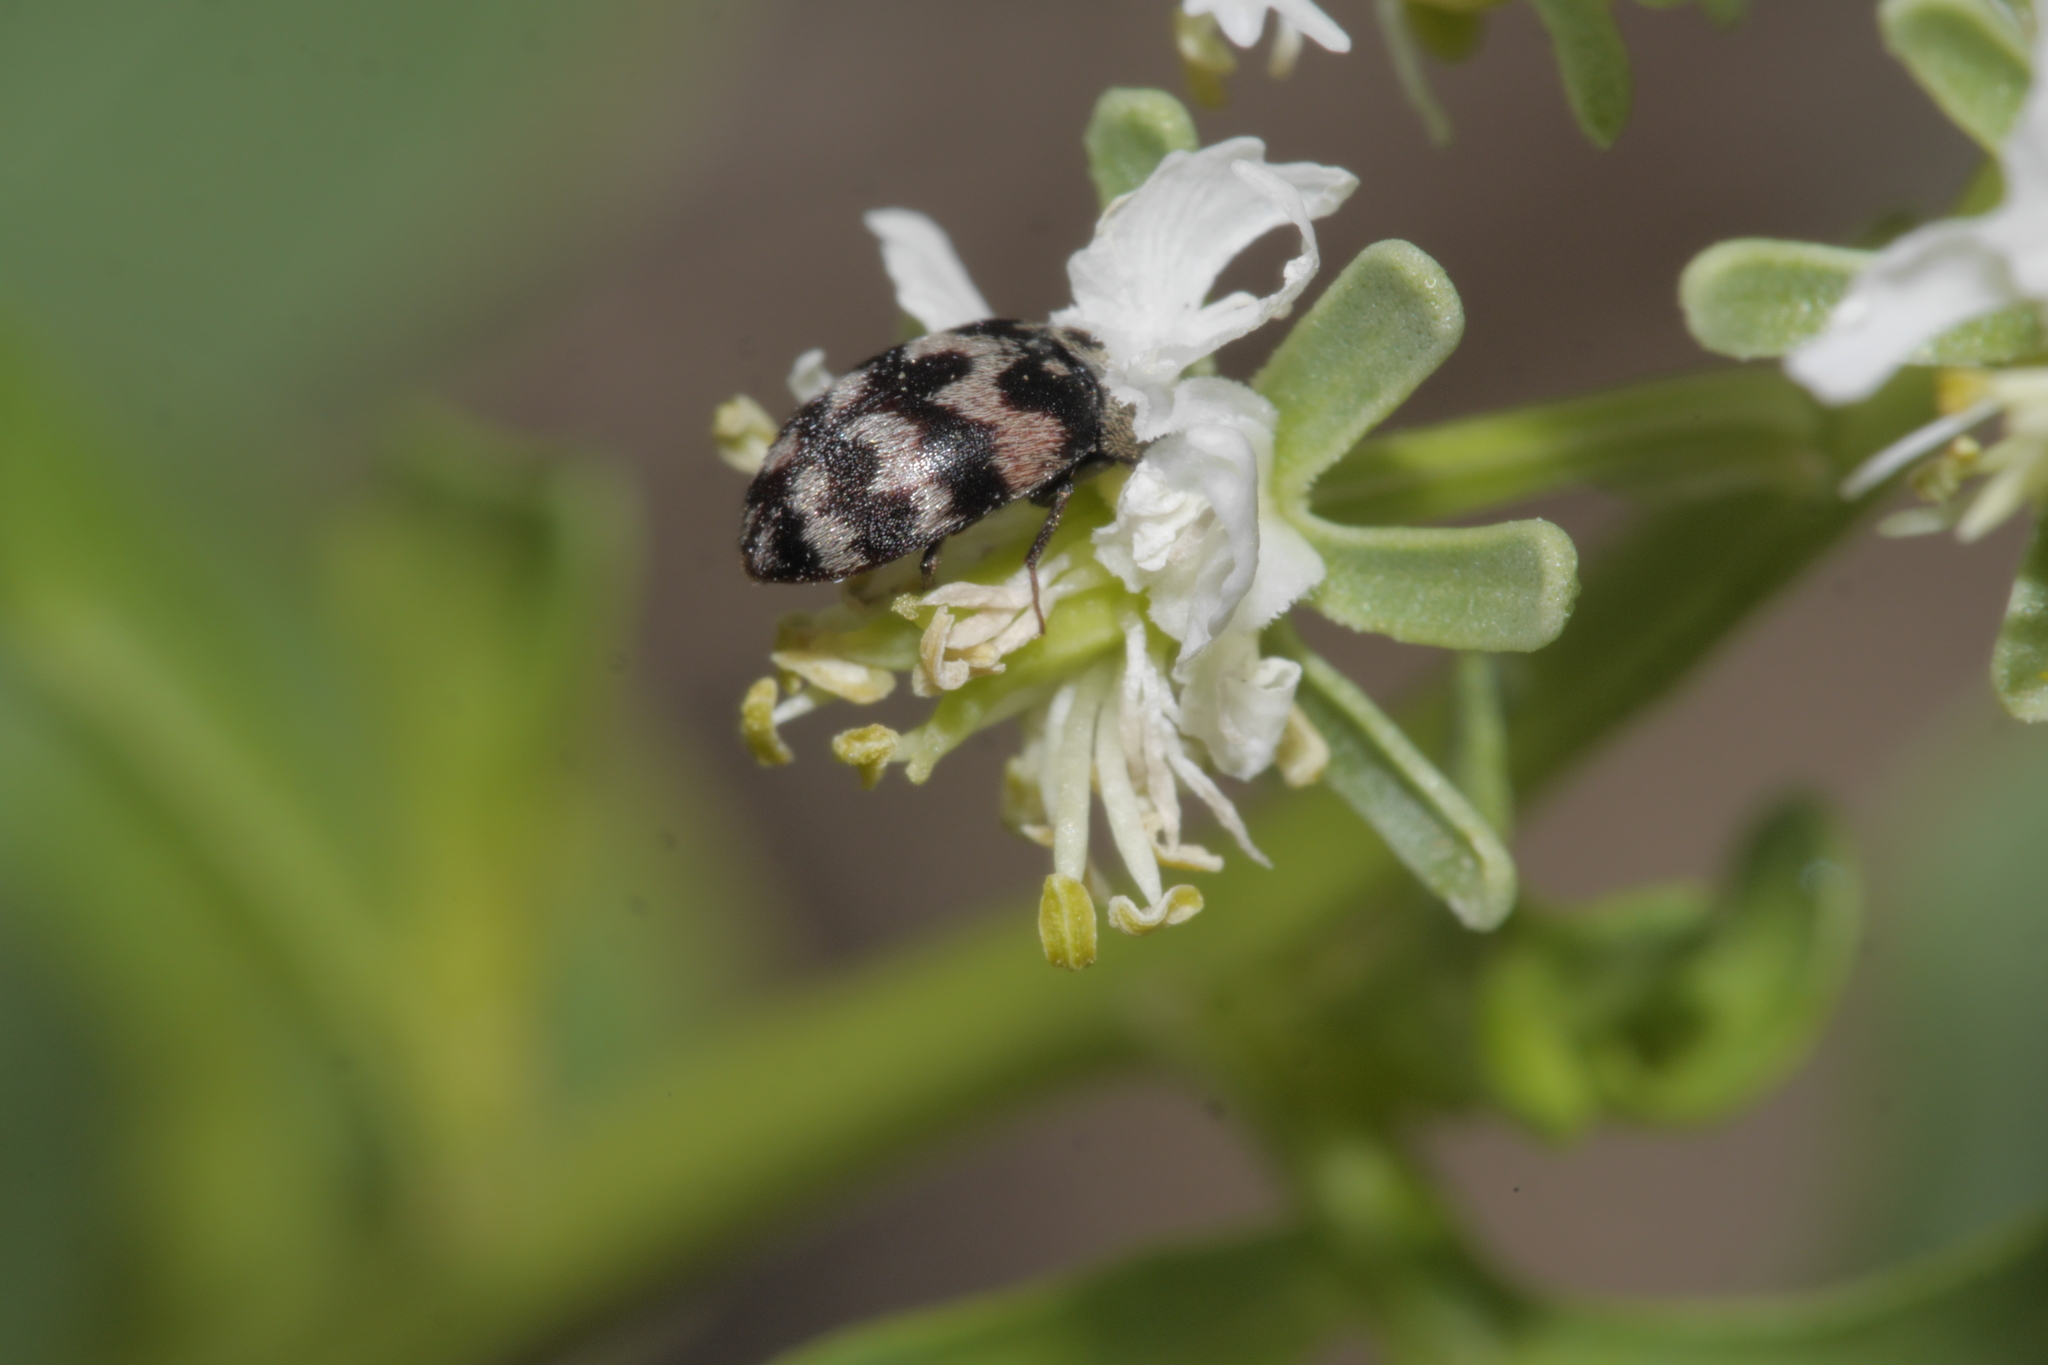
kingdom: Animalia
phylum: Arthropoda
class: Insecta
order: Coleoptera
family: Dermestidae
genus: Attagenus
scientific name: Attagenus trifasciatus
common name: Carpet beetle
